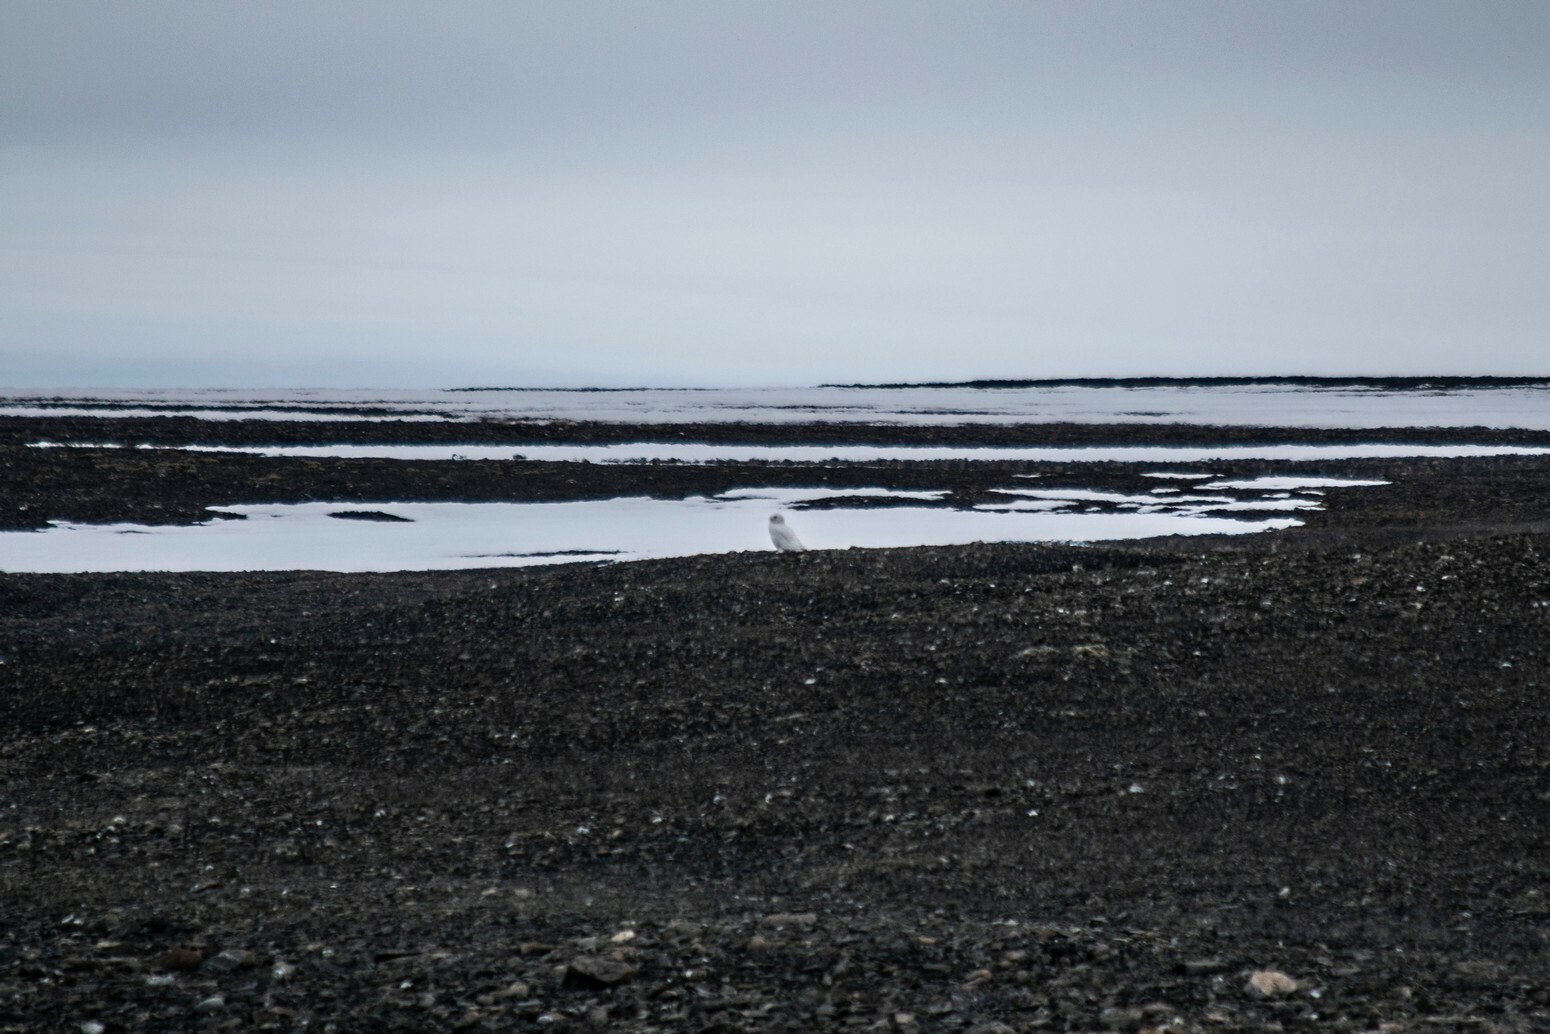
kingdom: Animalia
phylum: Chordata
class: Aves
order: Strigiformes
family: Strigidae
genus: Bubo
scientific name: Bubo scandiacus
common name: Snowy owl
